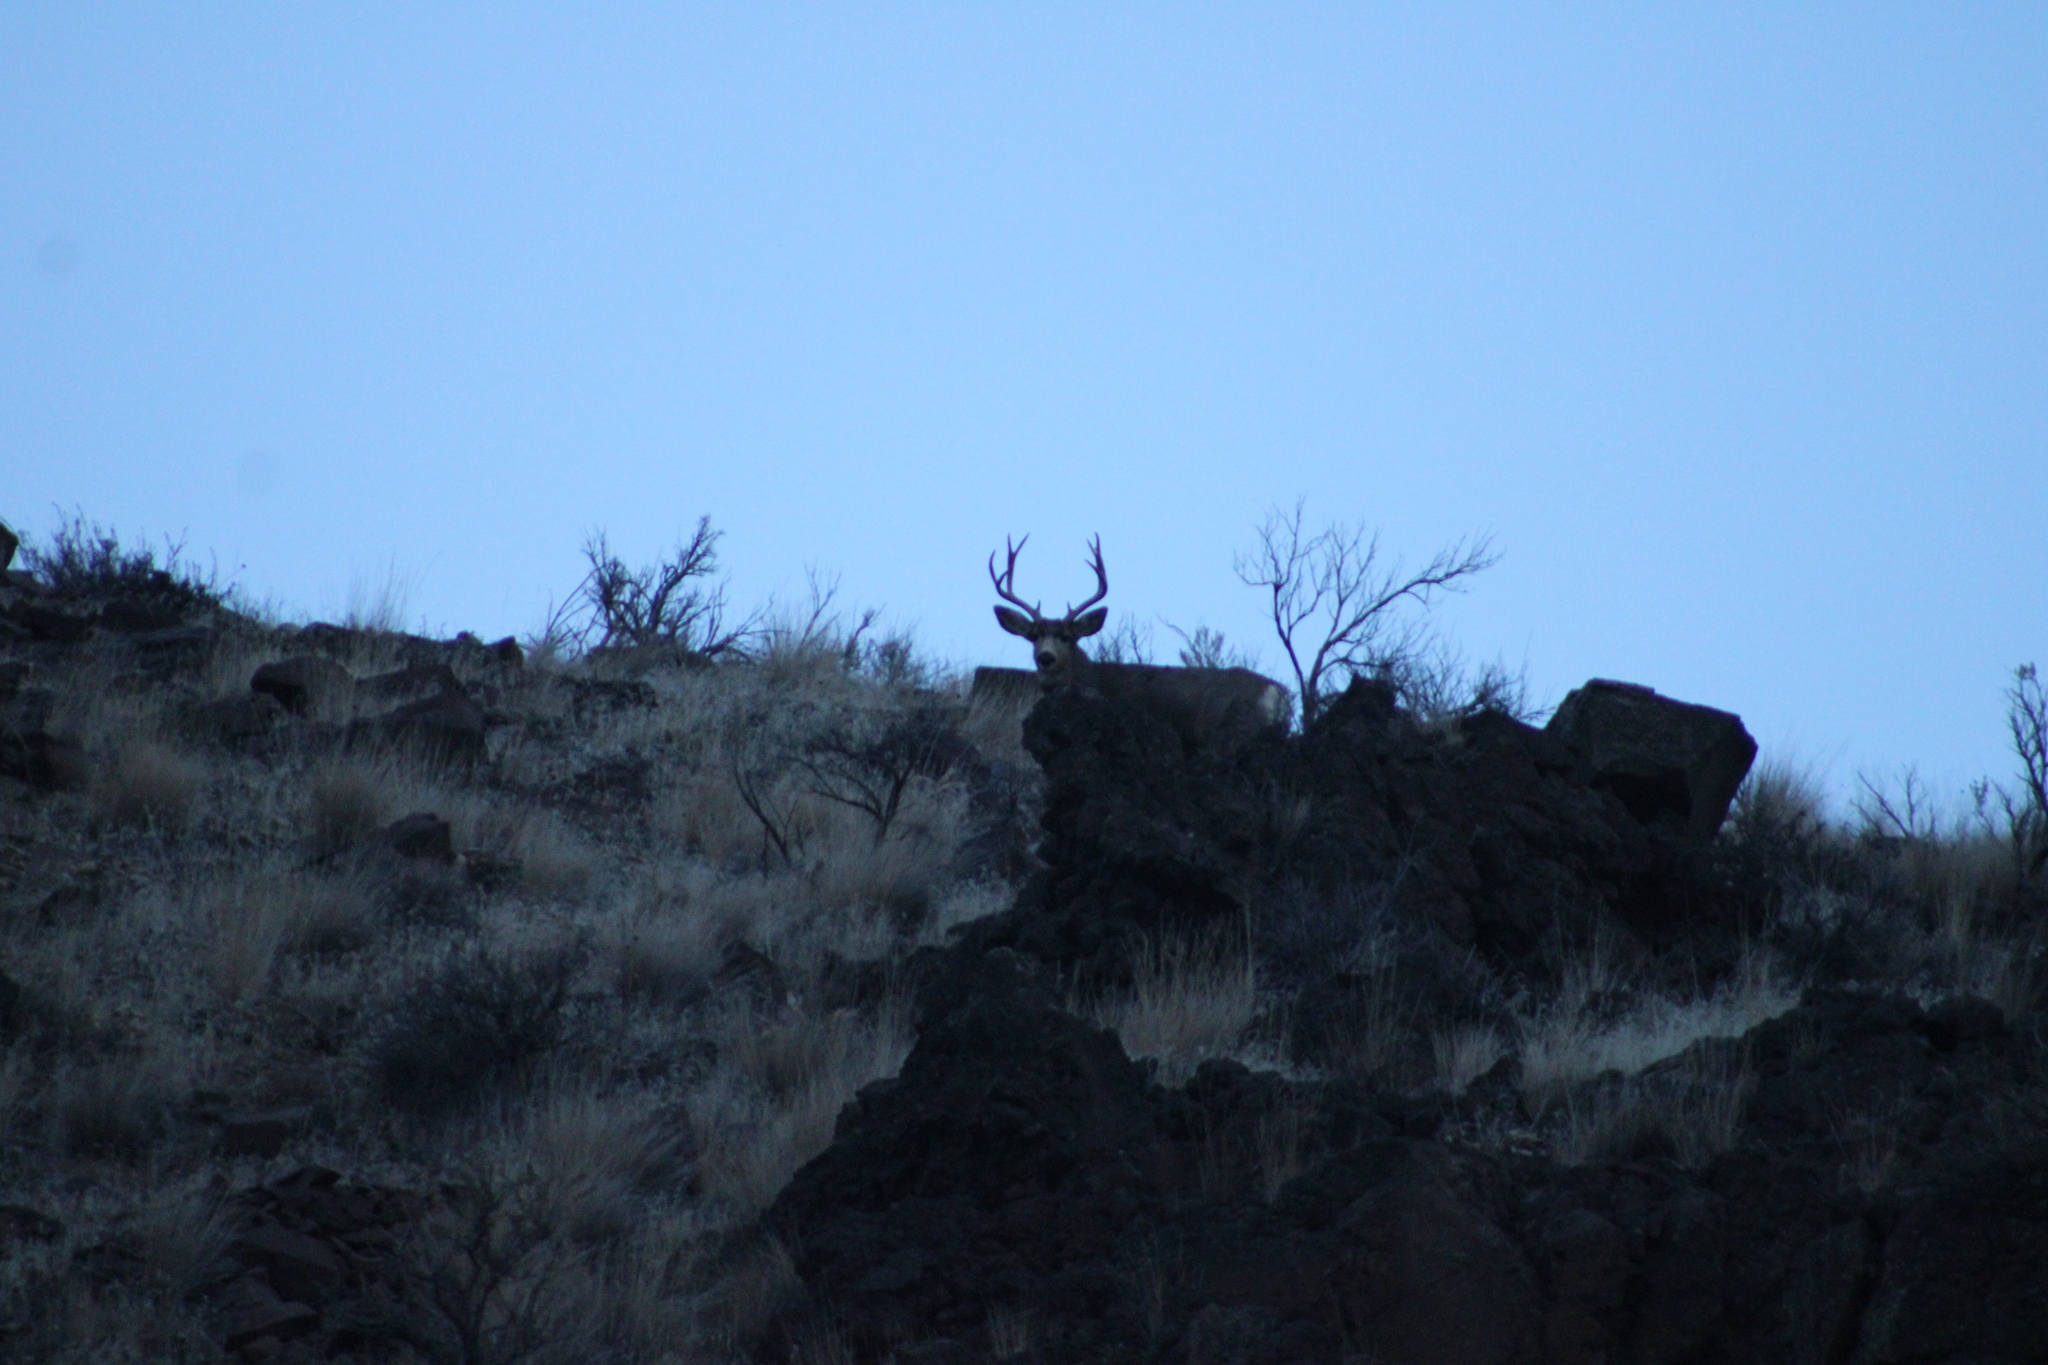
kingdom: Animalia
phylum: Chordata
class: Mammalia
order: Artiodactyla
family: Cervidae
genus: Odocoileus
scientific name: Odocoileus hemionus
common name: Mule deer
